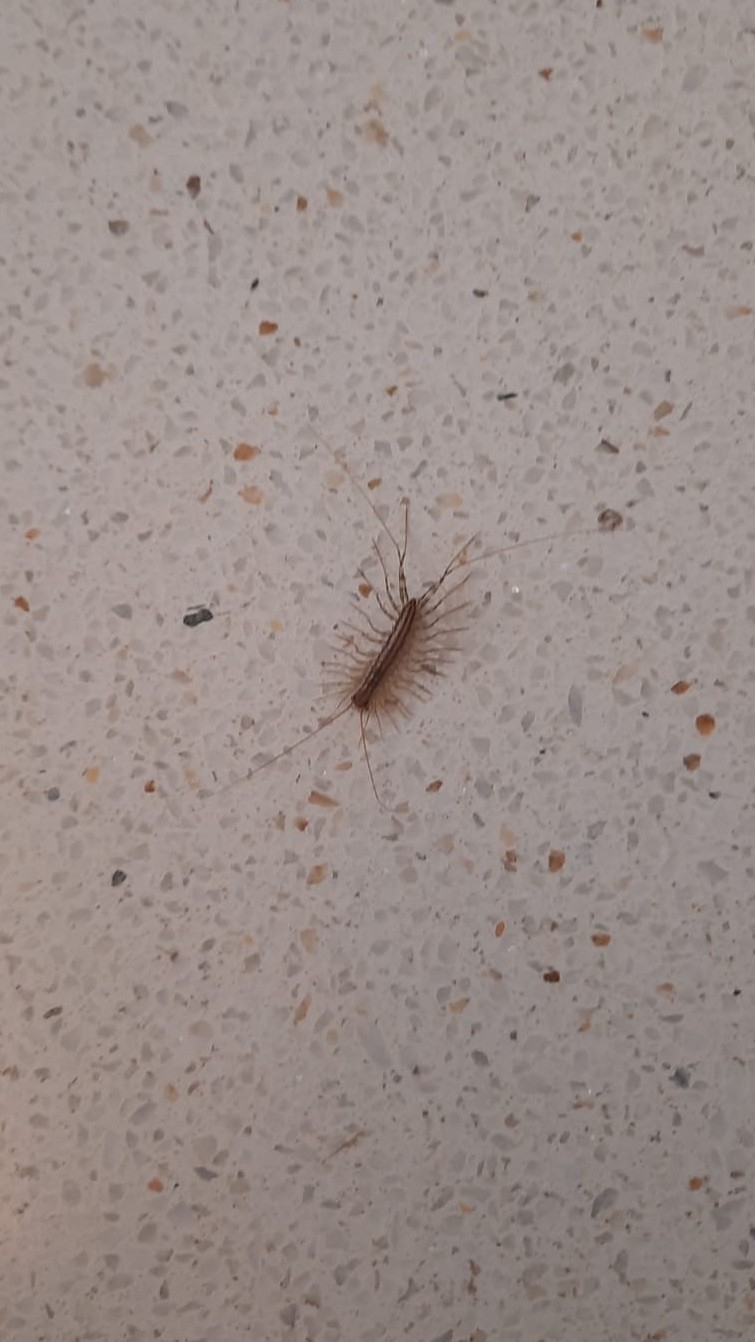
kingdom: Animalia
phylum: Arthropoda
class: Chilopoda
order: Scutigeromorpha
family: Scutigeridae
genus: Scutigera
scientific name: Scutigera coleoptrata
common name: House centipede
